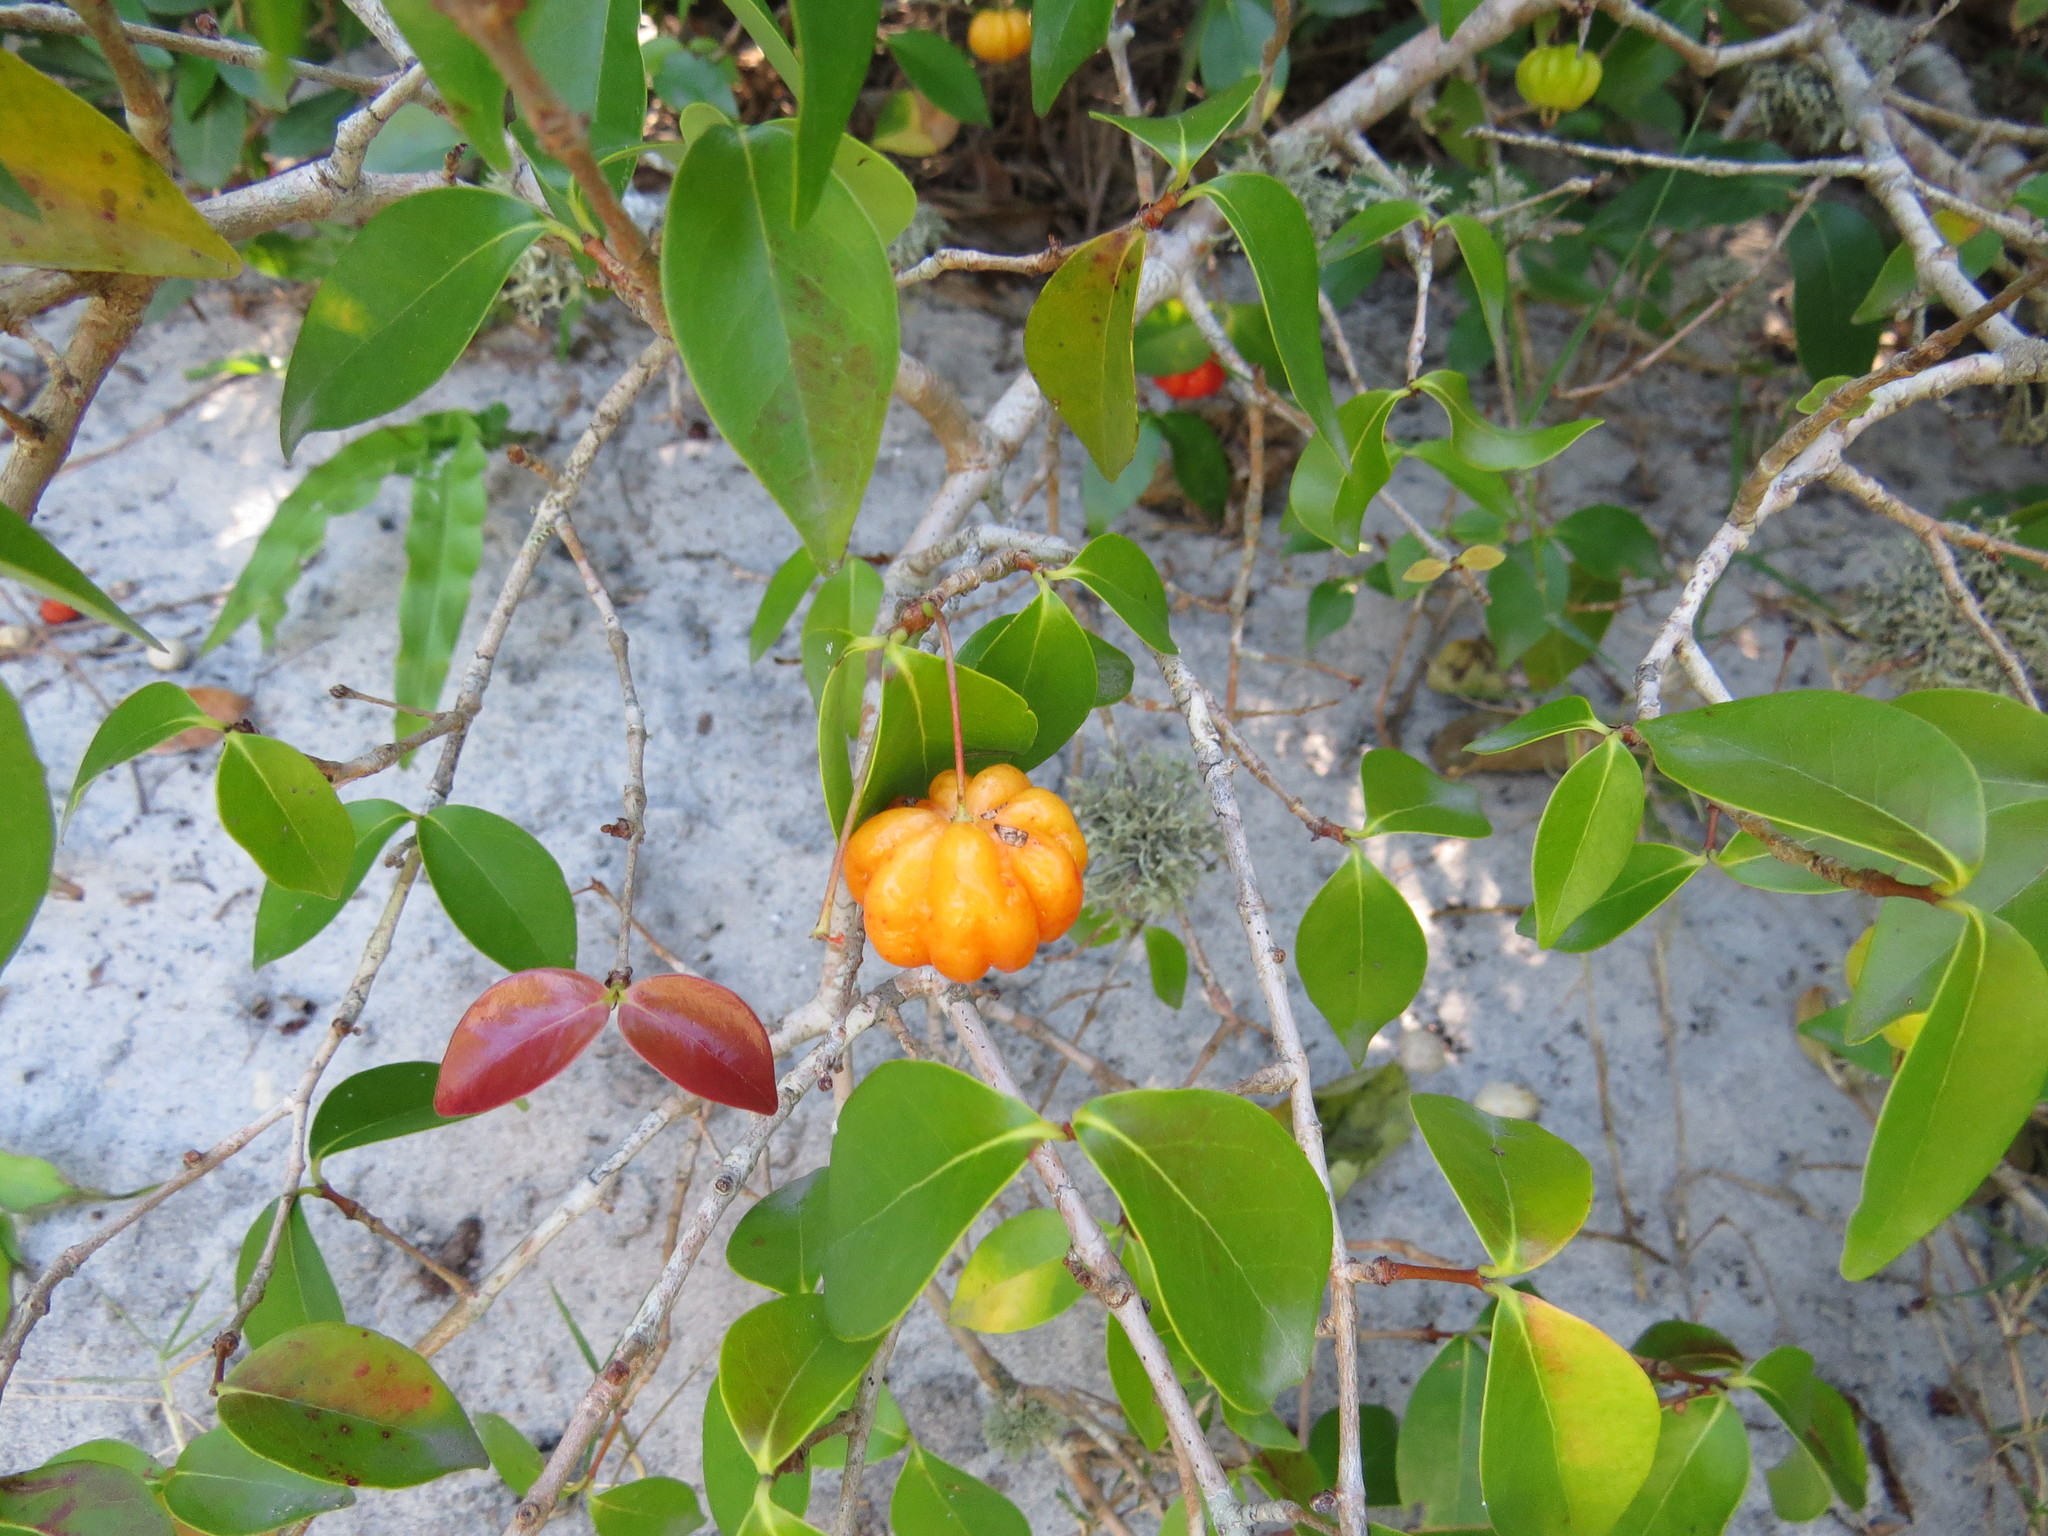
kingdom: Plantae
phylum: Tracheophyta
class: Magnoliopsida
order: Myrtales
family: Myrtaceae
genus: Eugenia
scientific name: Eugenia uniflora
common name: Surinam cherry
